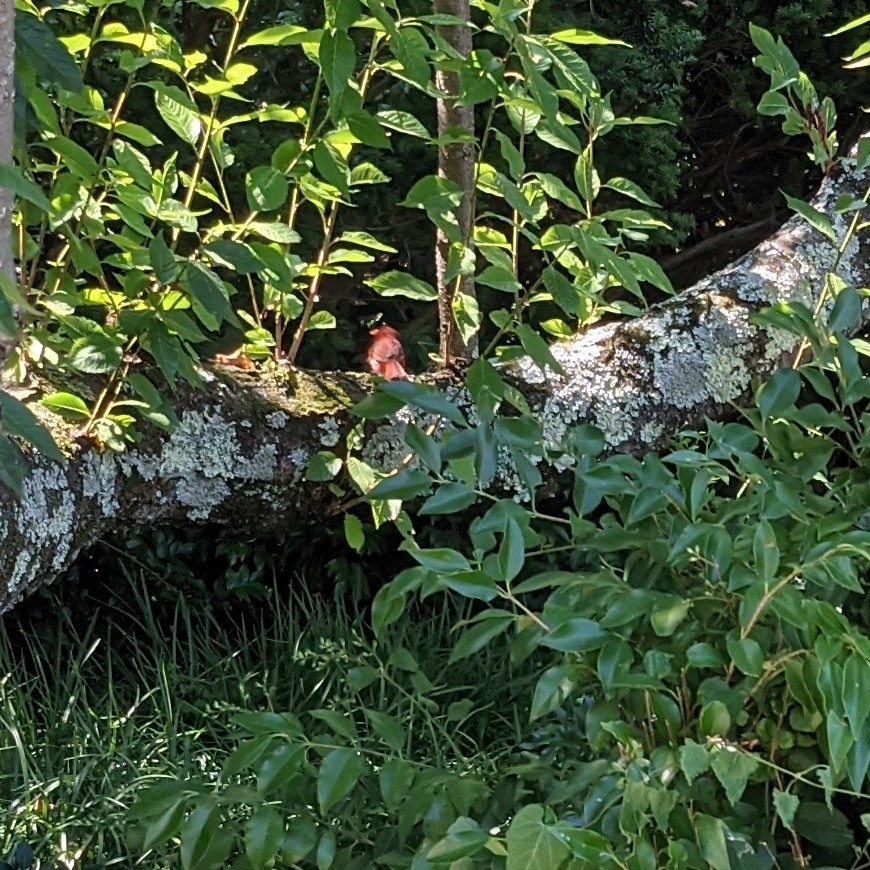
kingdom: Animalia
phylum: Chordata
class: Aves
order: Passeriformes
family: Cardinalidae
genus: Cardinalis
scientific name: Cardinalis cardinalis
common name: Northern cardinal
